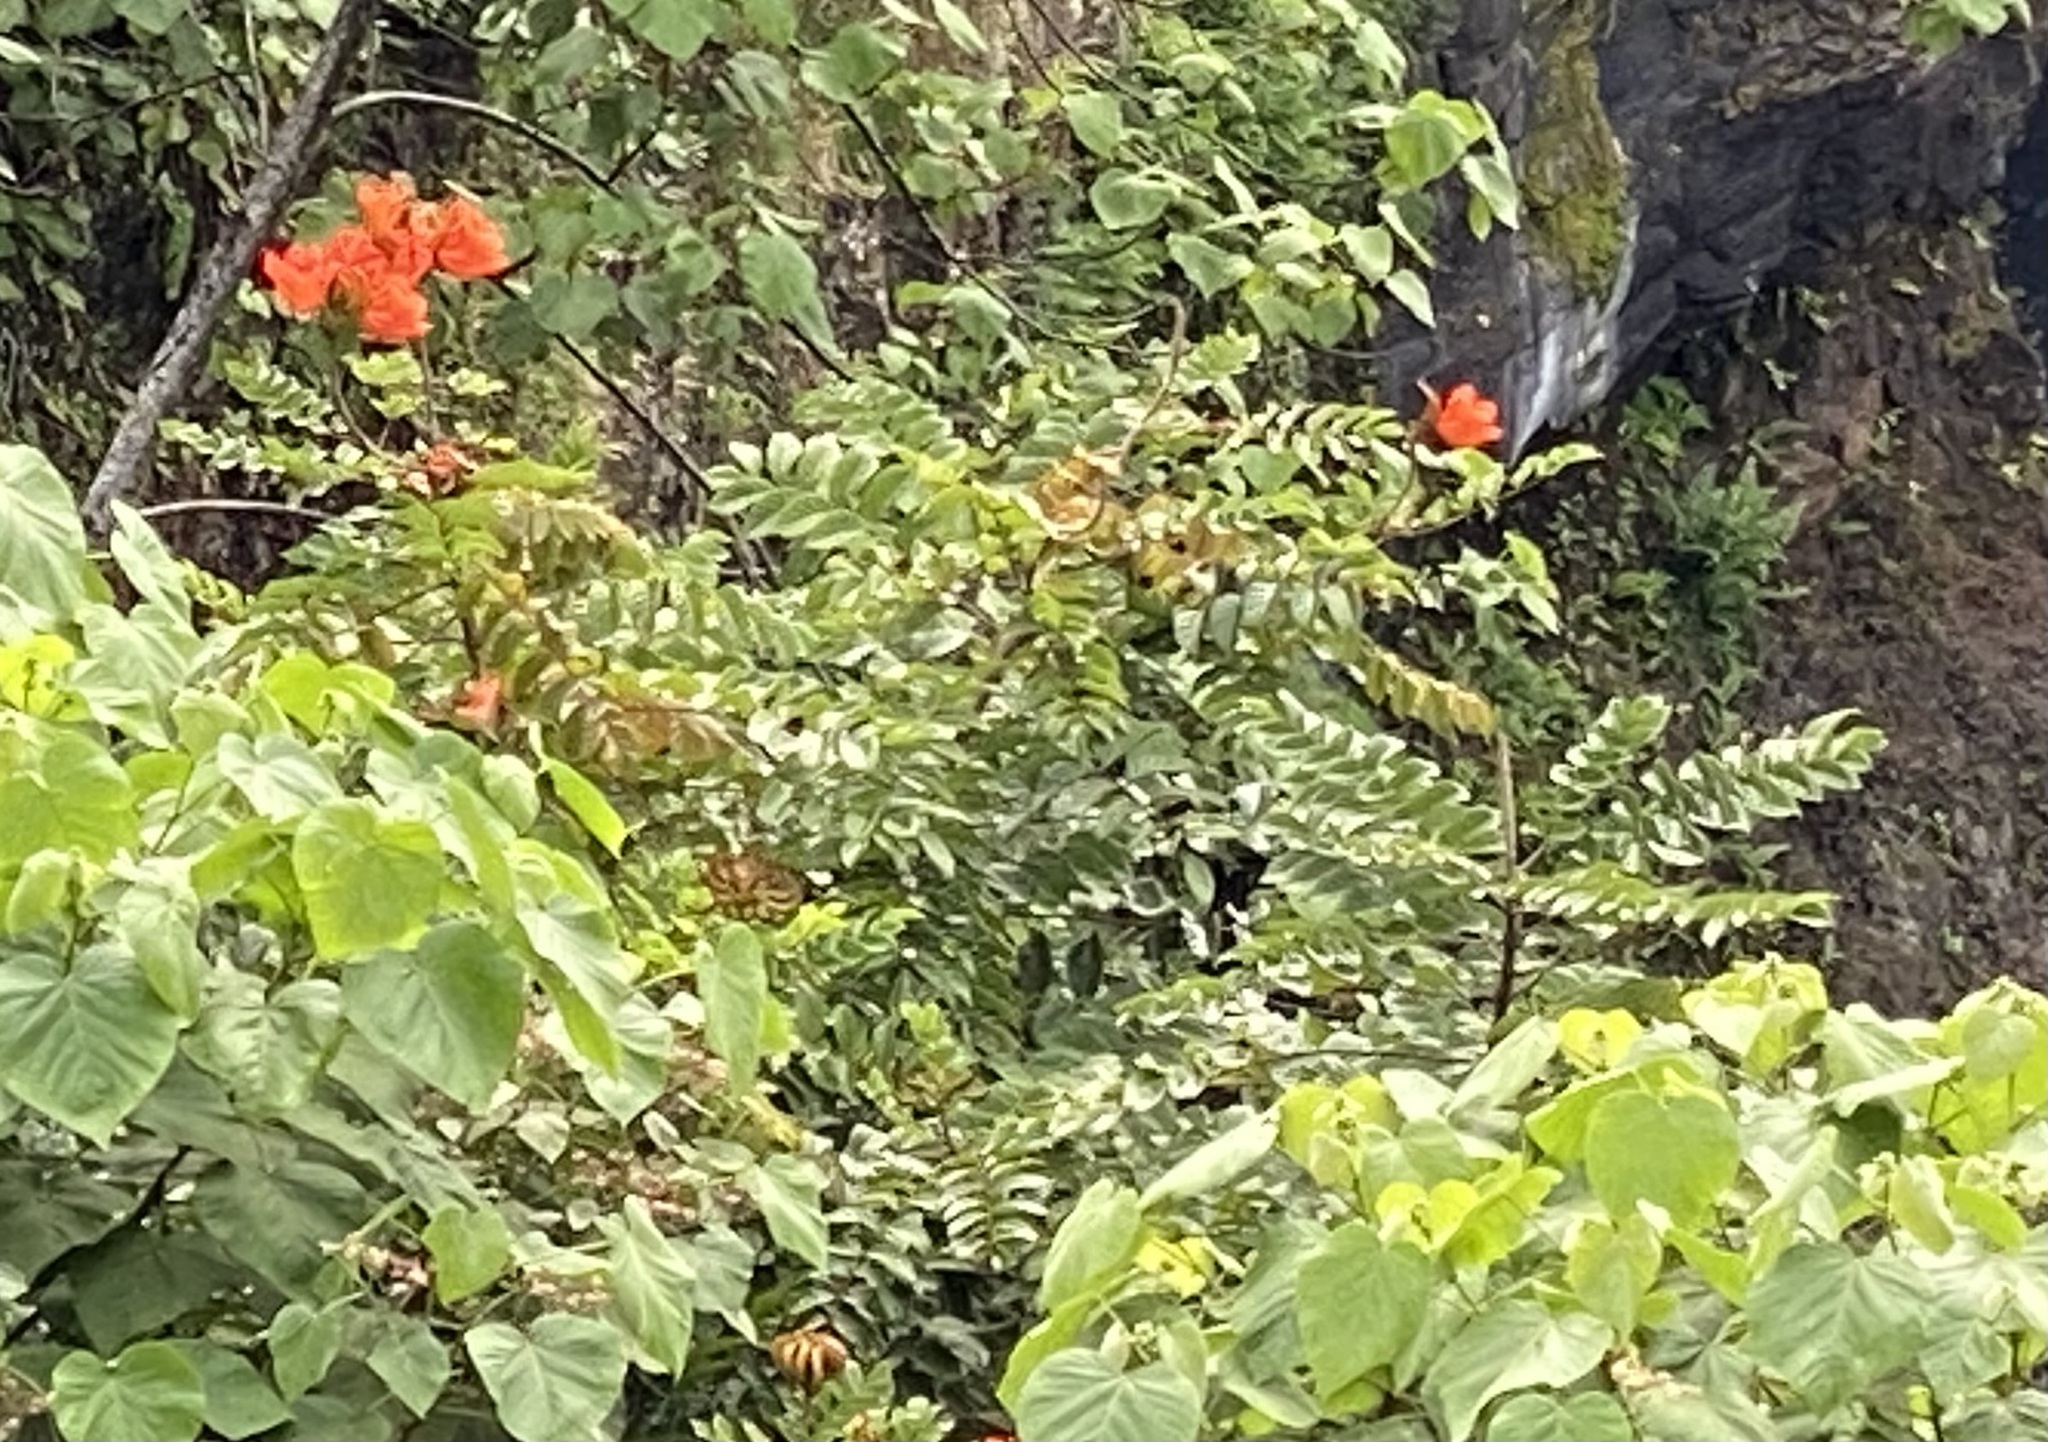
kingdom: Plantae
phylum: Tracheophyta
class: Magnoliopsida
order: Lamiales
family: Bignoniaceae
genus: Spathodea
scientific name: Spathodea campanulata
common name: African tuliptree
